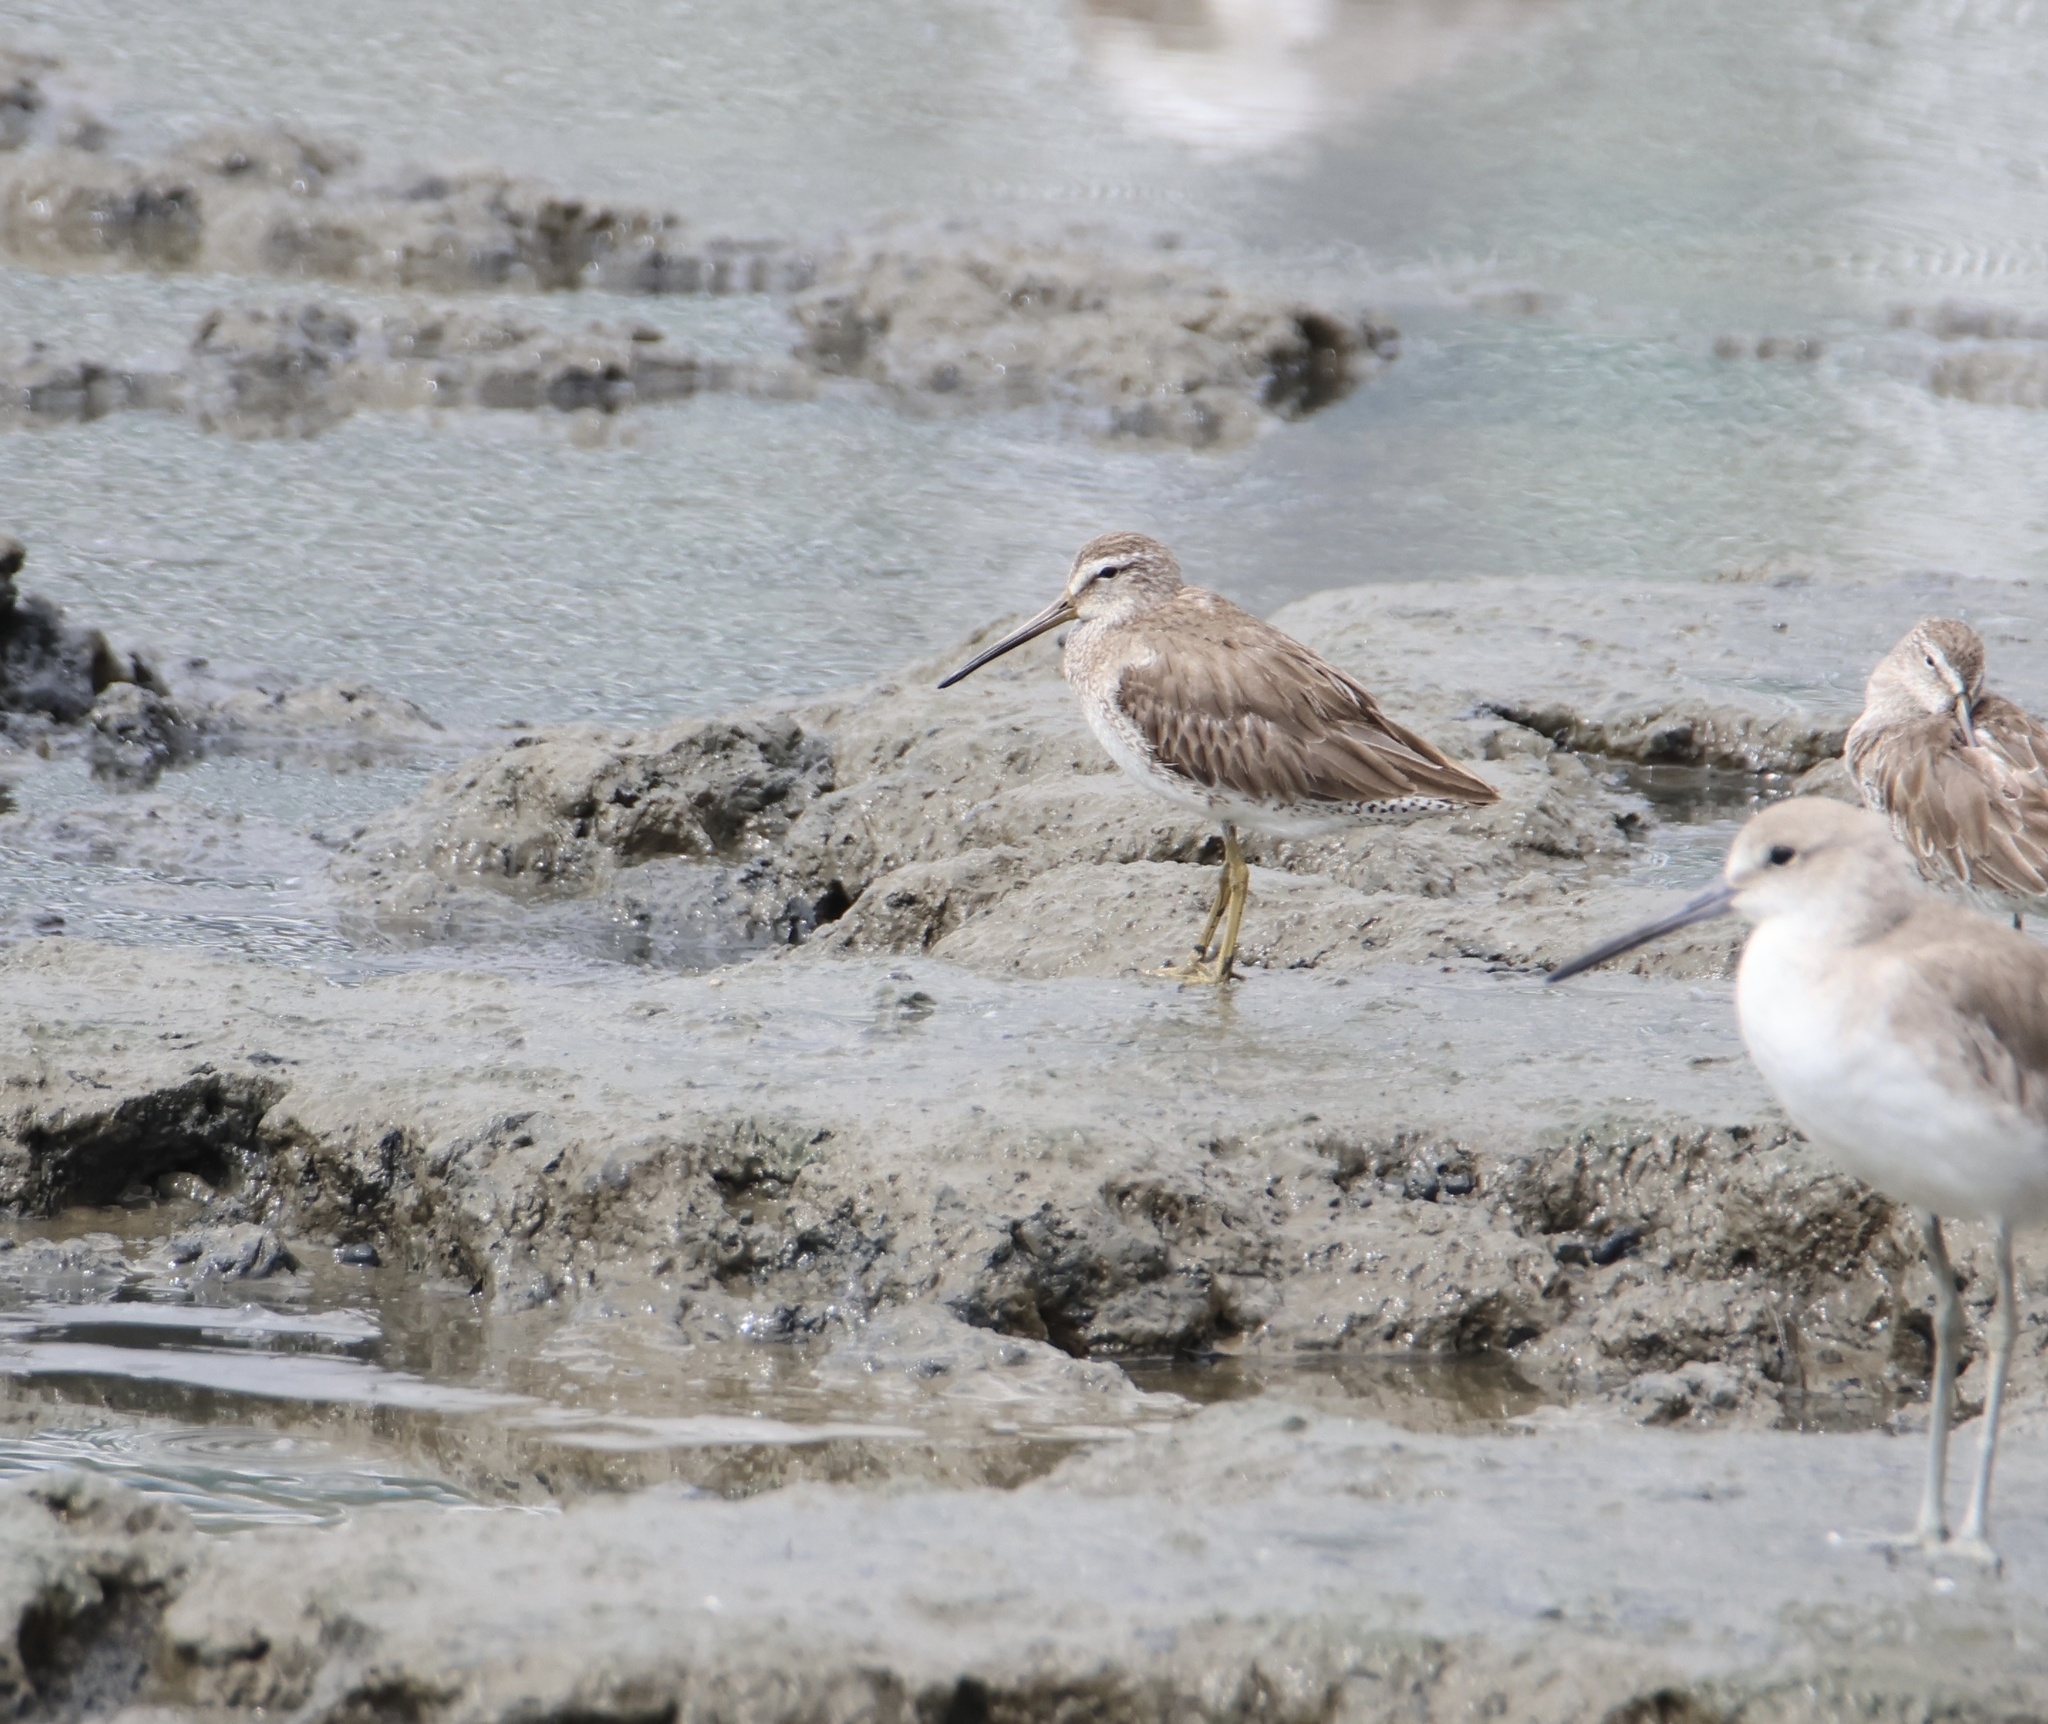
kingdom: Animalia
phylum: Chordata
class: Aves
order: Charadriiformes
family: Scolopacidae
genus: Limnodromus
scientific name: Limnodromus griseus
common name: Short-billed dowitcher
